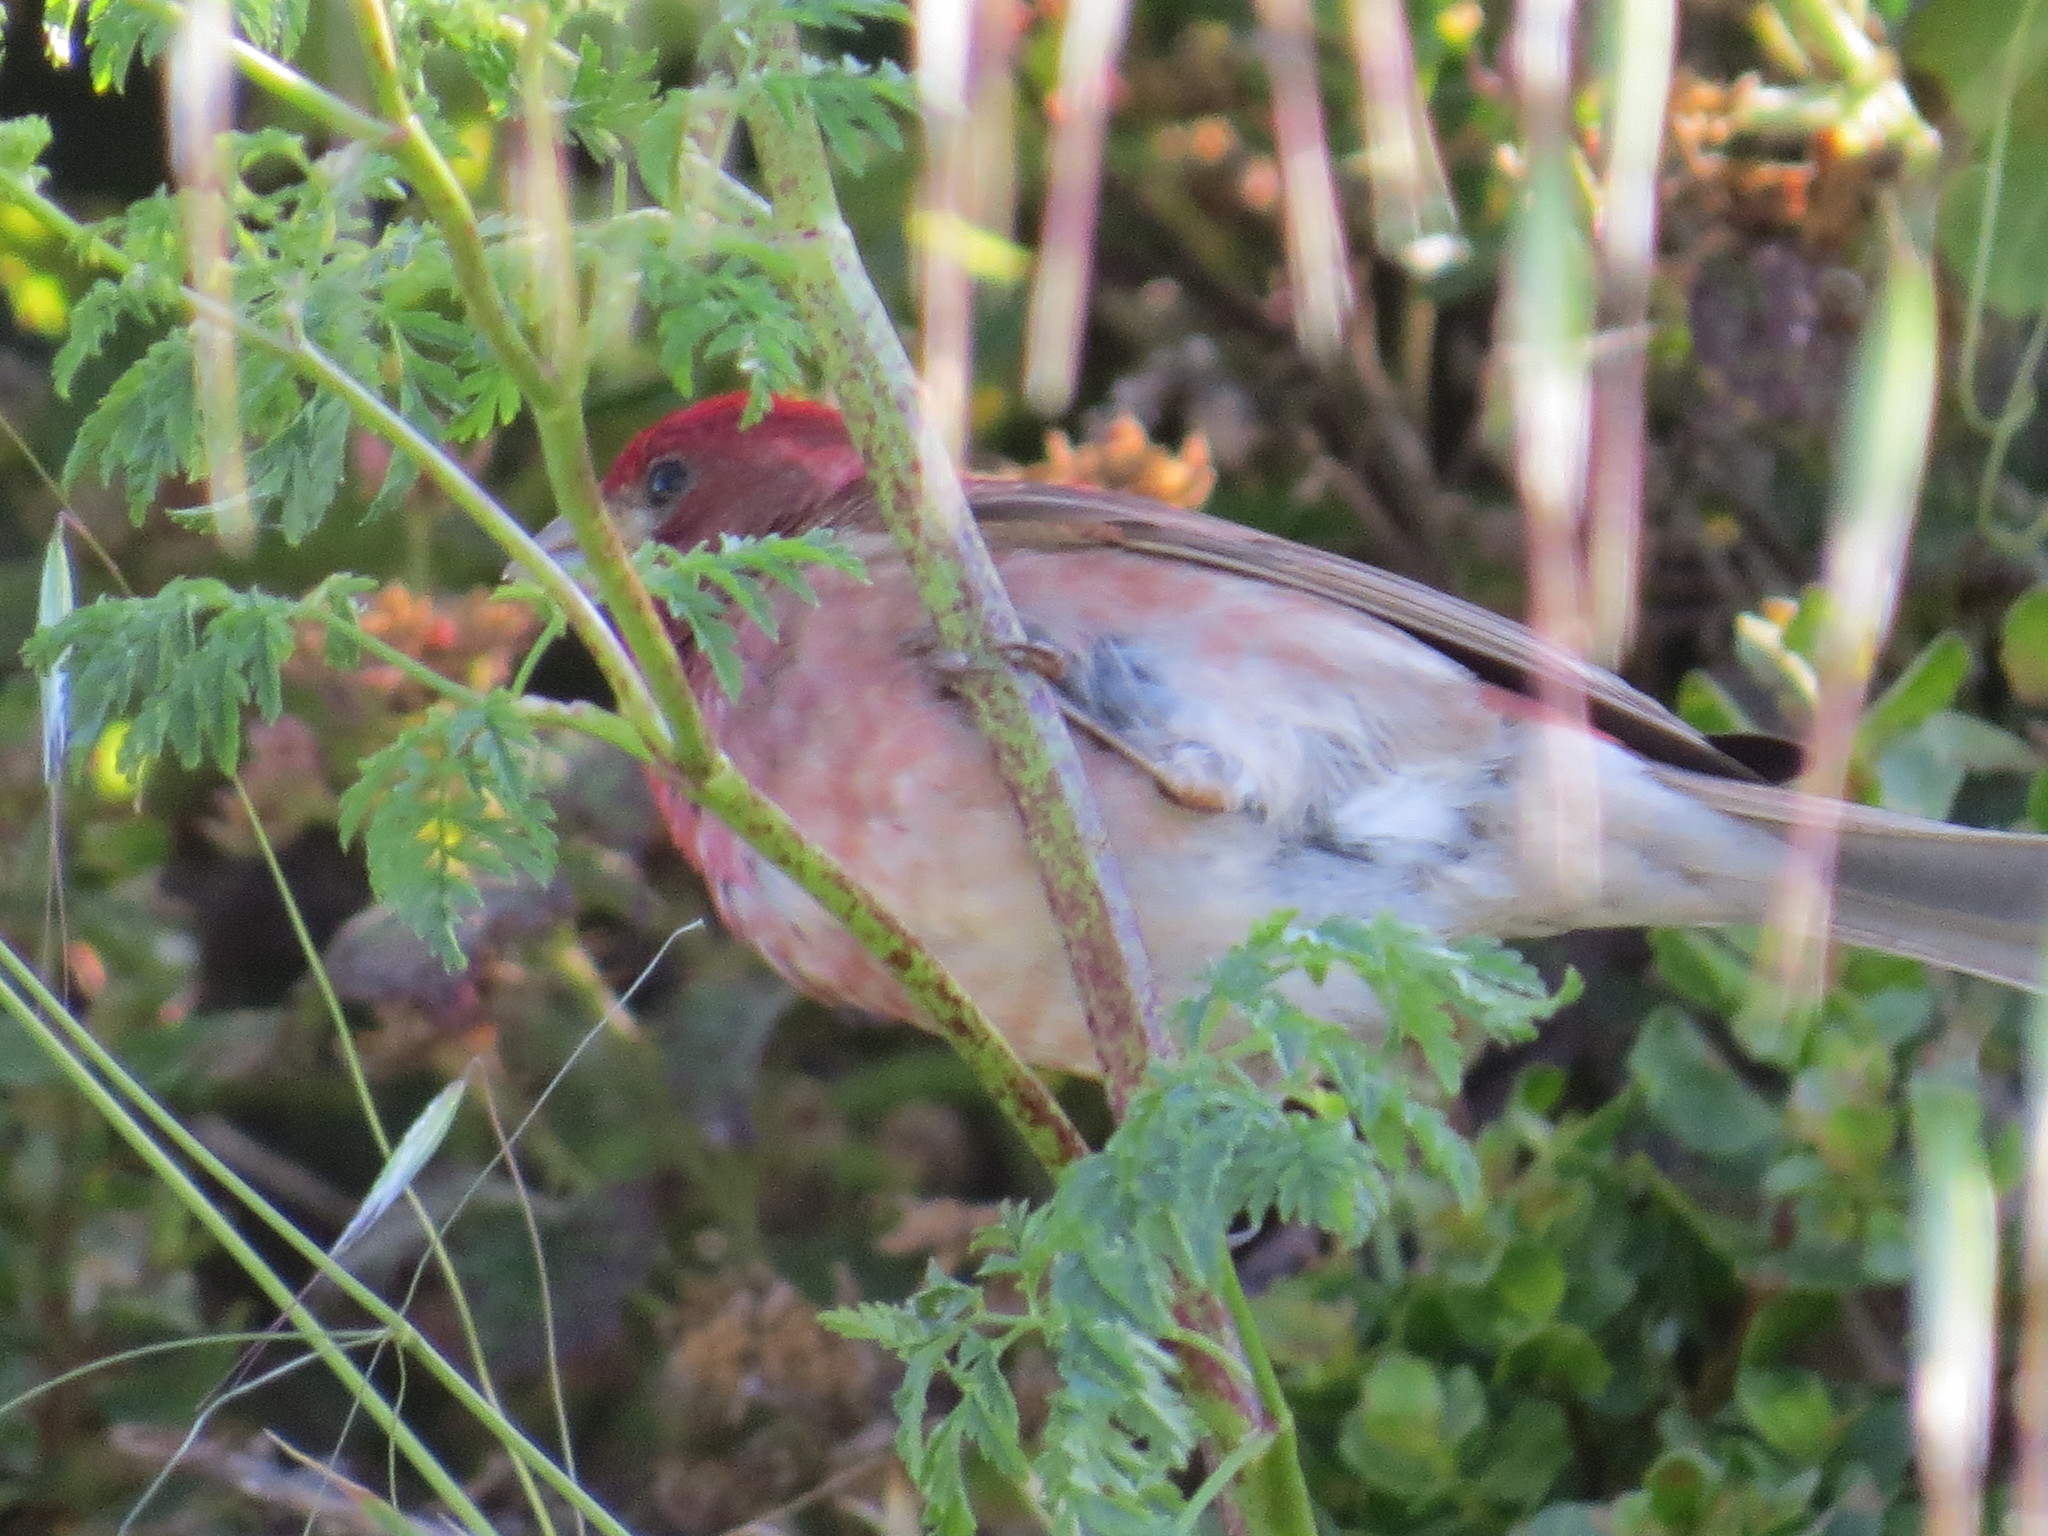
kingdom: Animalia
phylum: Chordata
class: Aves
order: Passeriformes
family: Fringillidae
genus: Haemorhous
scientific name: Haemorhous purpureus
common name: Purple finch
